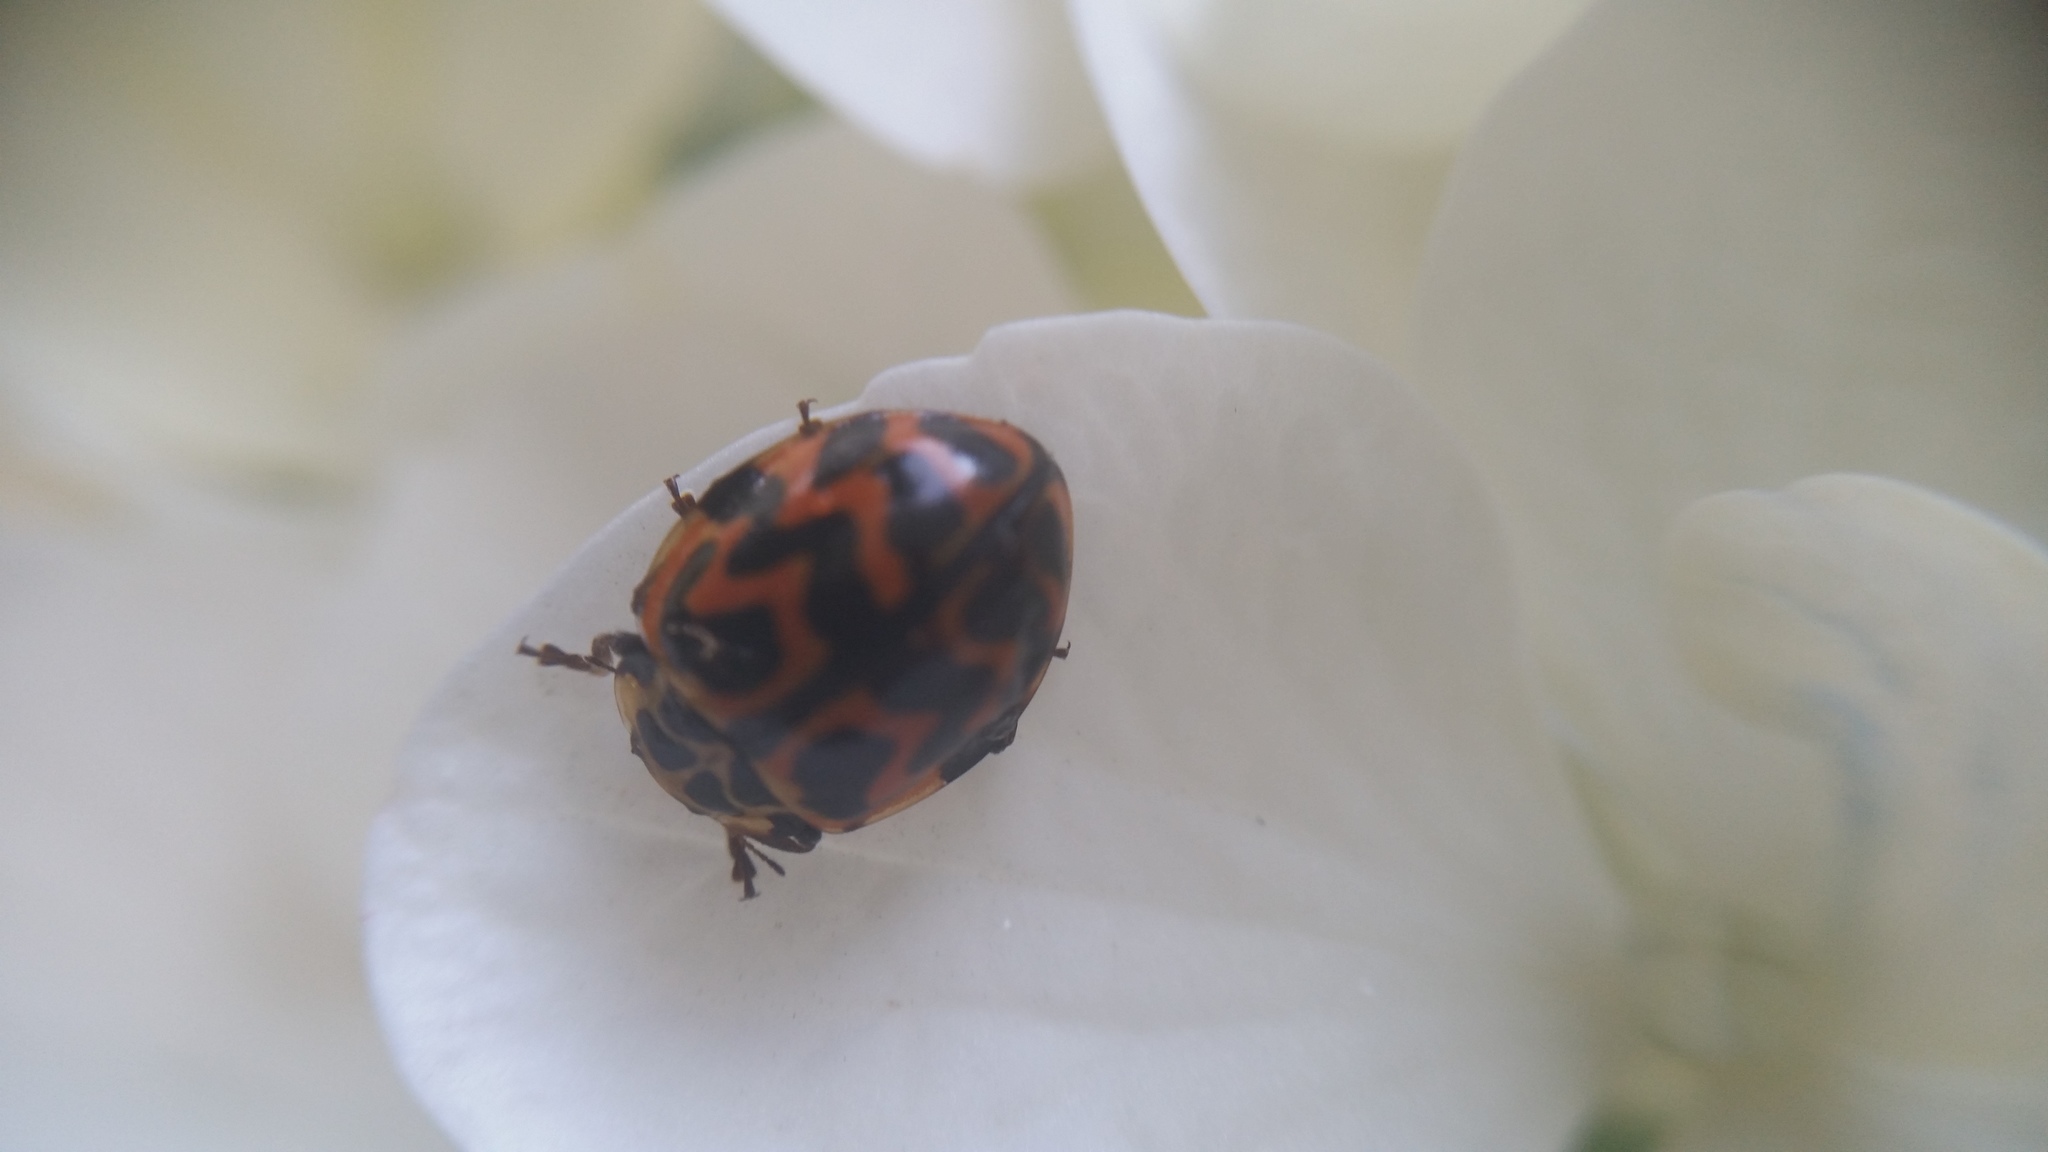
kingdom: Animalia
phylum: Arthropoda
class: Insecta
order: Coleoptera
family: Coccinellidae
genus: Cleobora
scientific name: Cleobora
